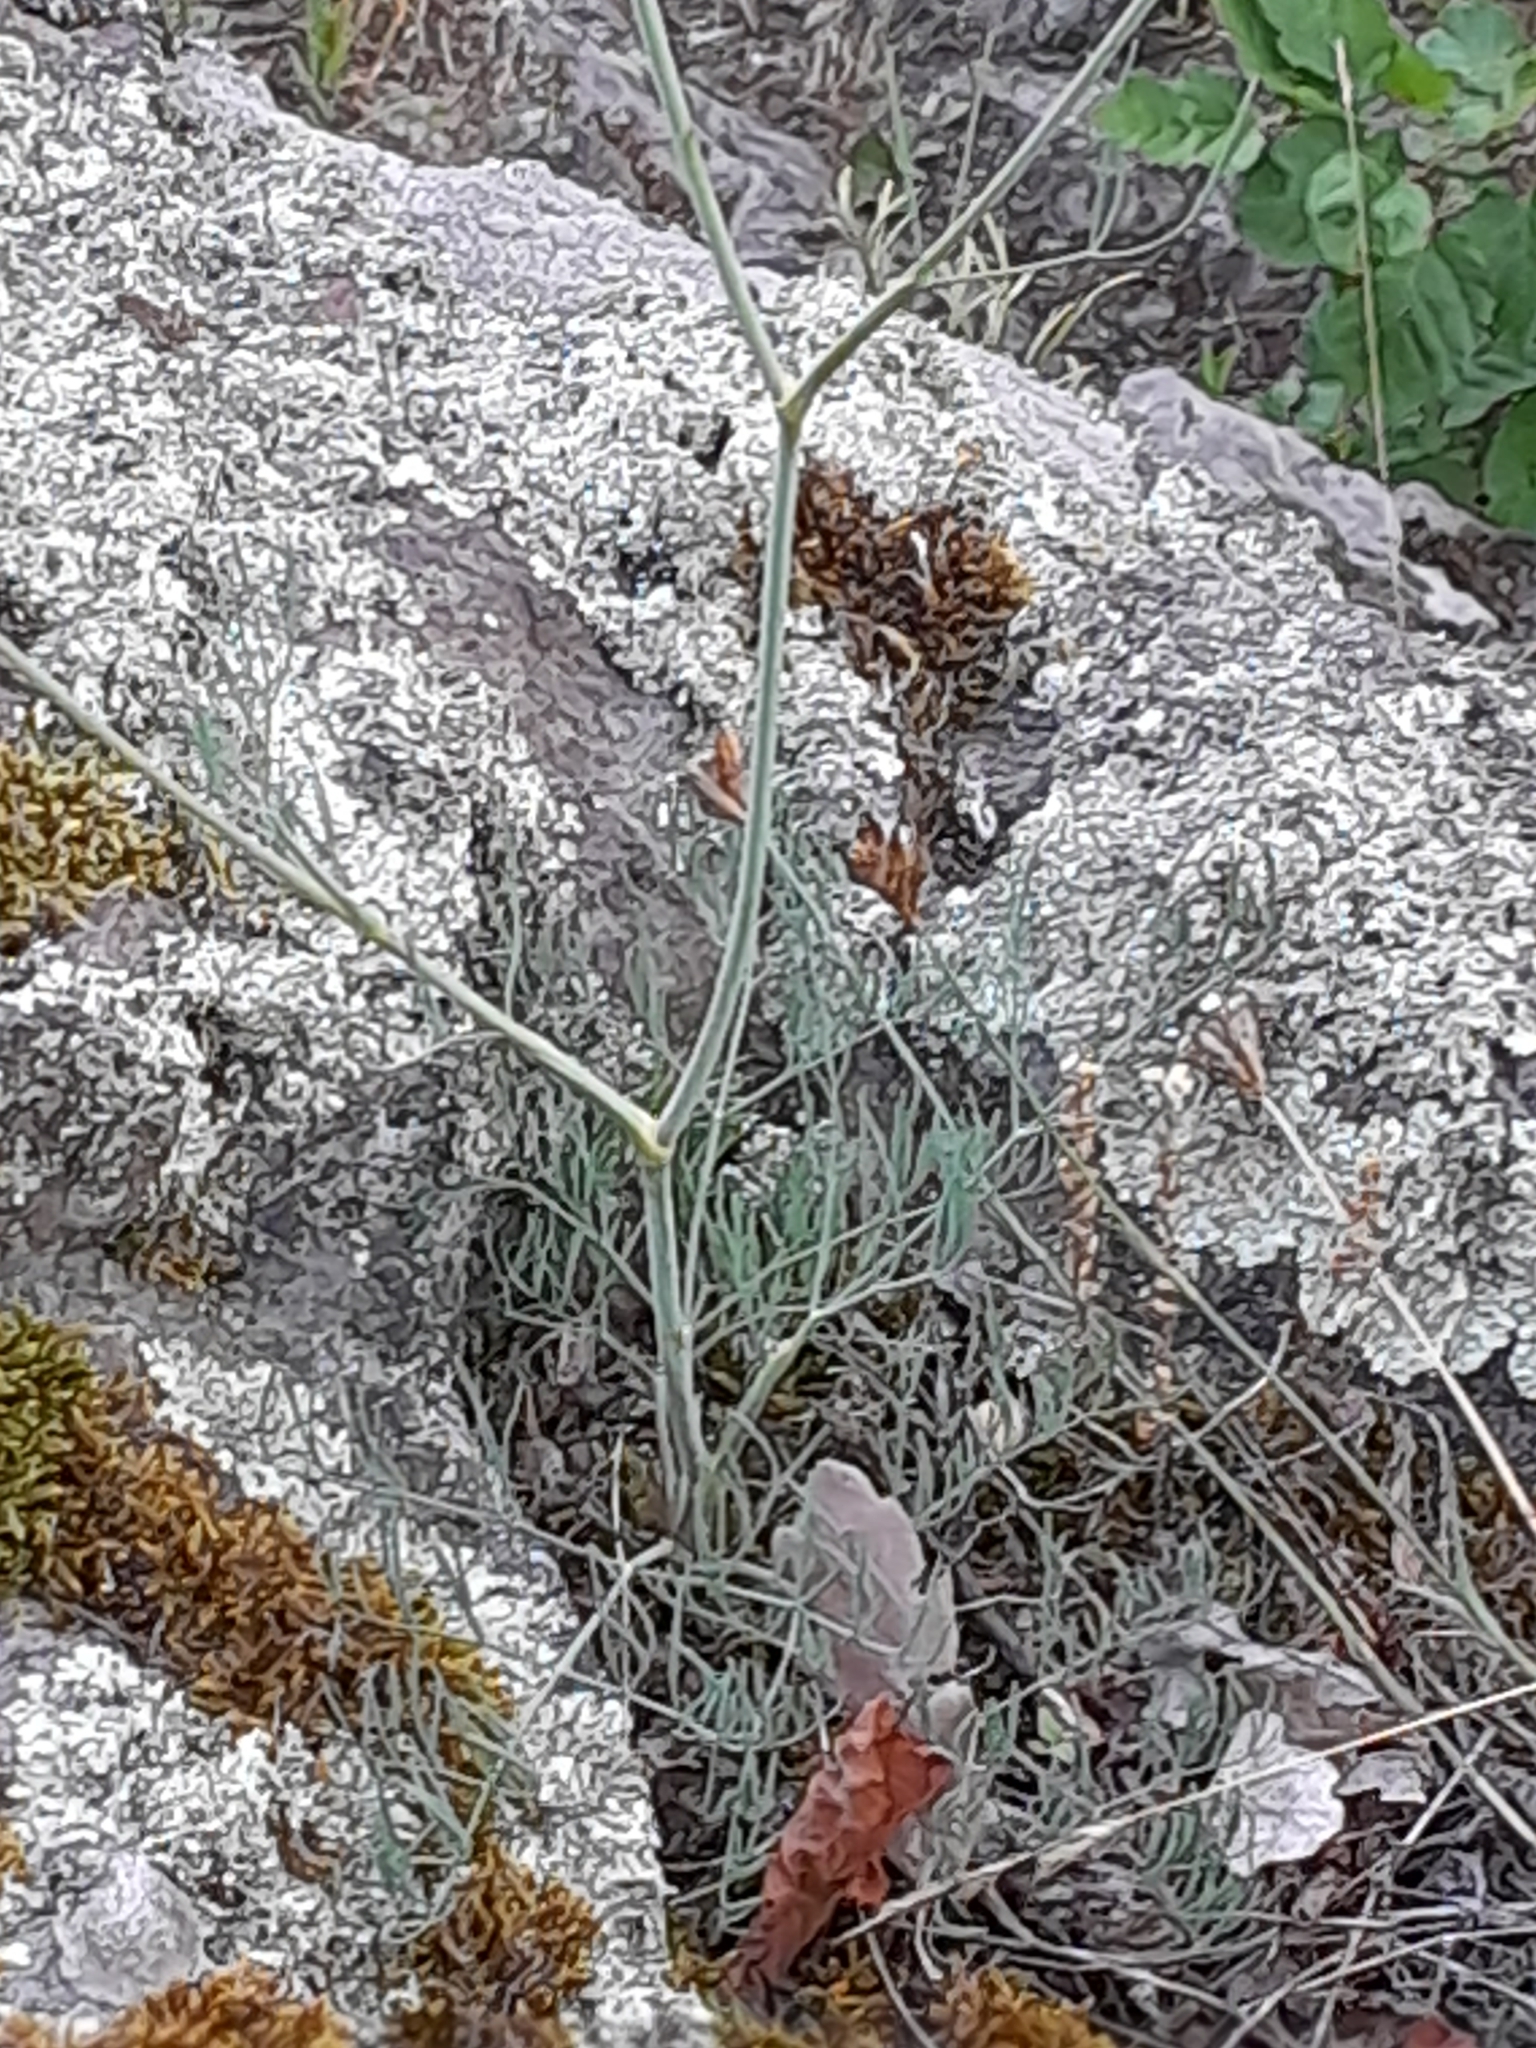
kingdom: Plantae
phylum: Tracheophyta
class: Magnoliopsida
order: Apiales
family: Apiaceae
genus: Seseli
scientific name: Seseli osseum
